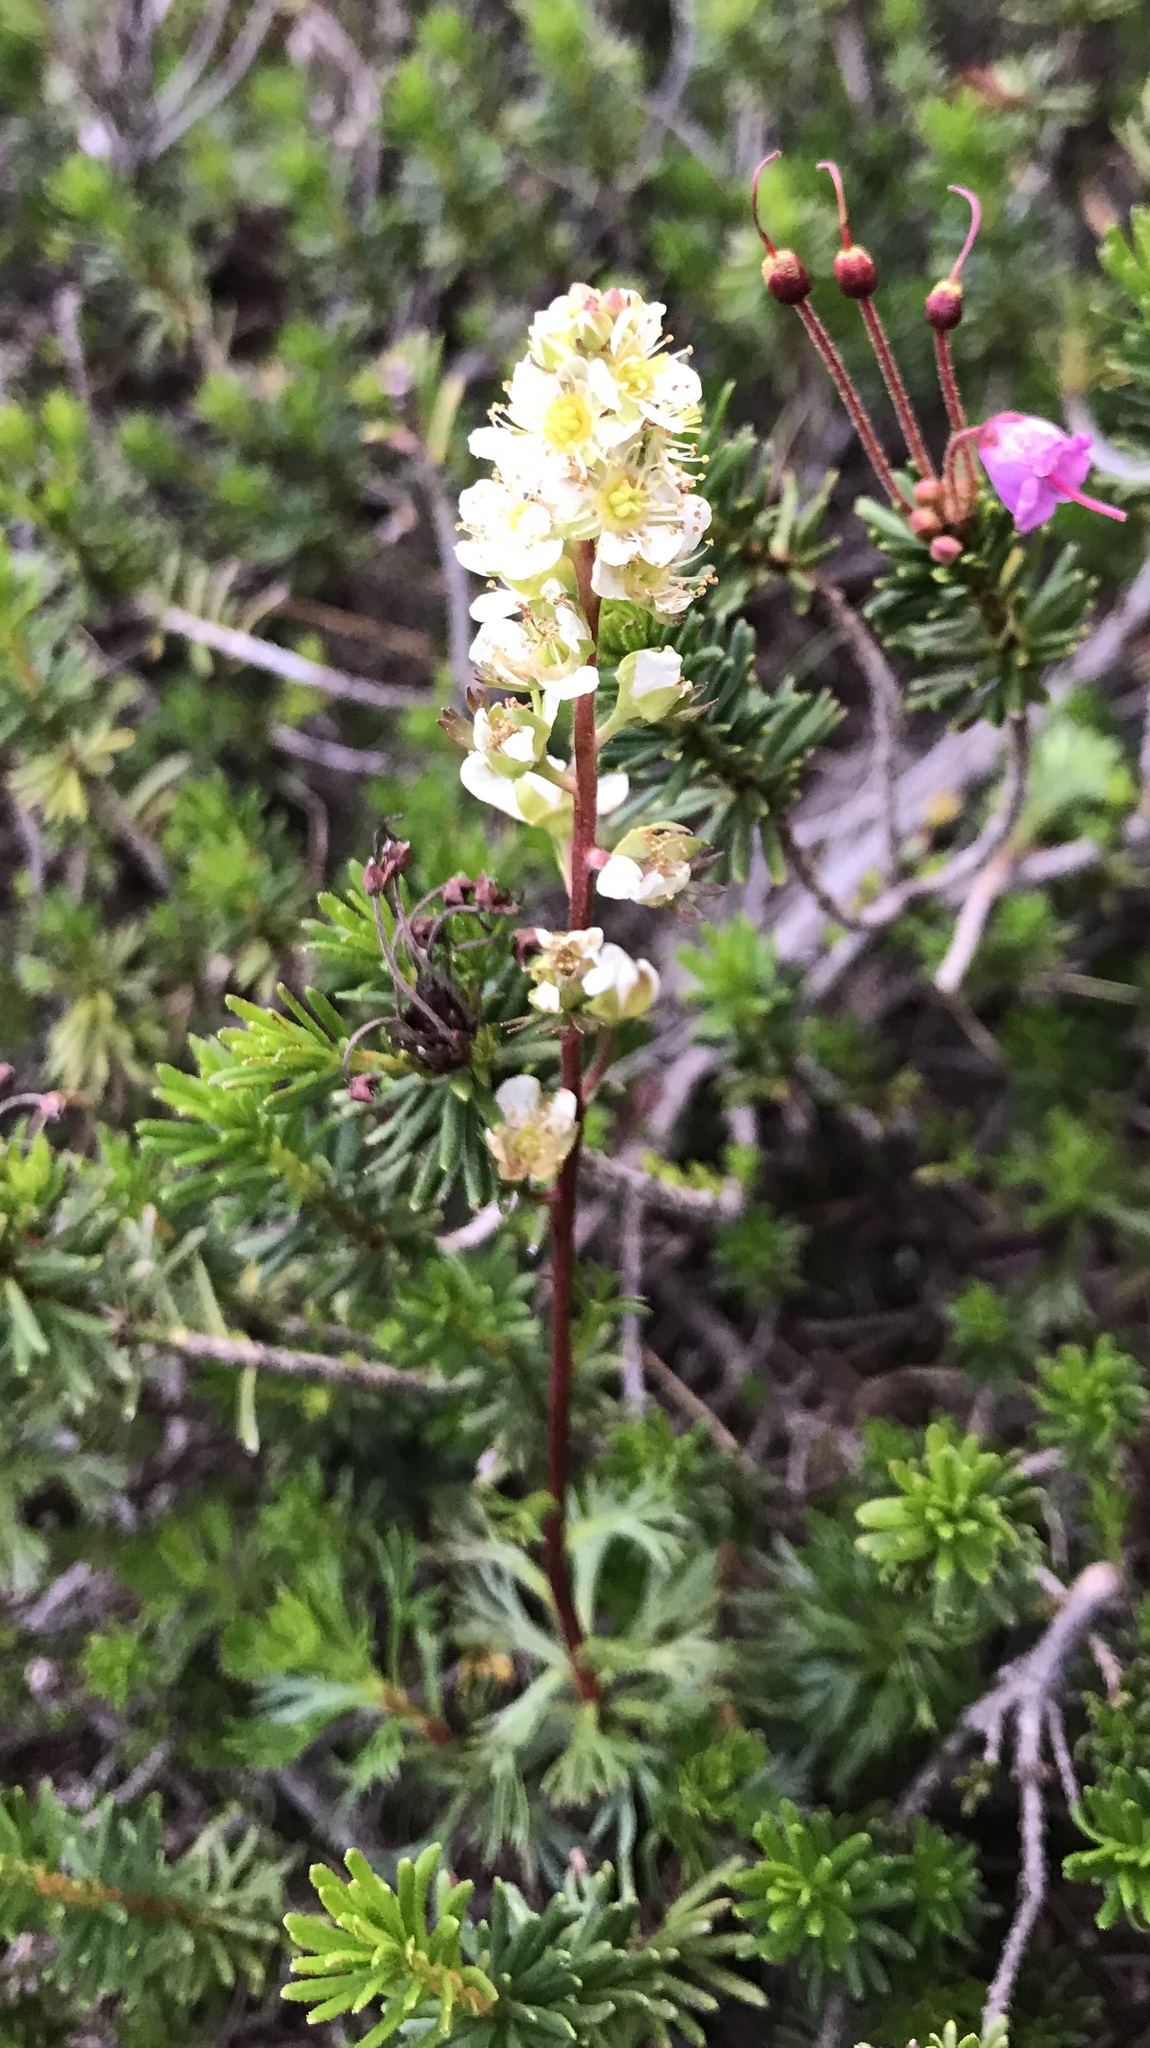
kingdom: Plantae
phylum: Tracheophyta
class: Magnoliopsida
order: Rosales
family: Rosaceae
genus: Luetkea
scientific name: Luetkea pectinata
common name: Partridgefoot
